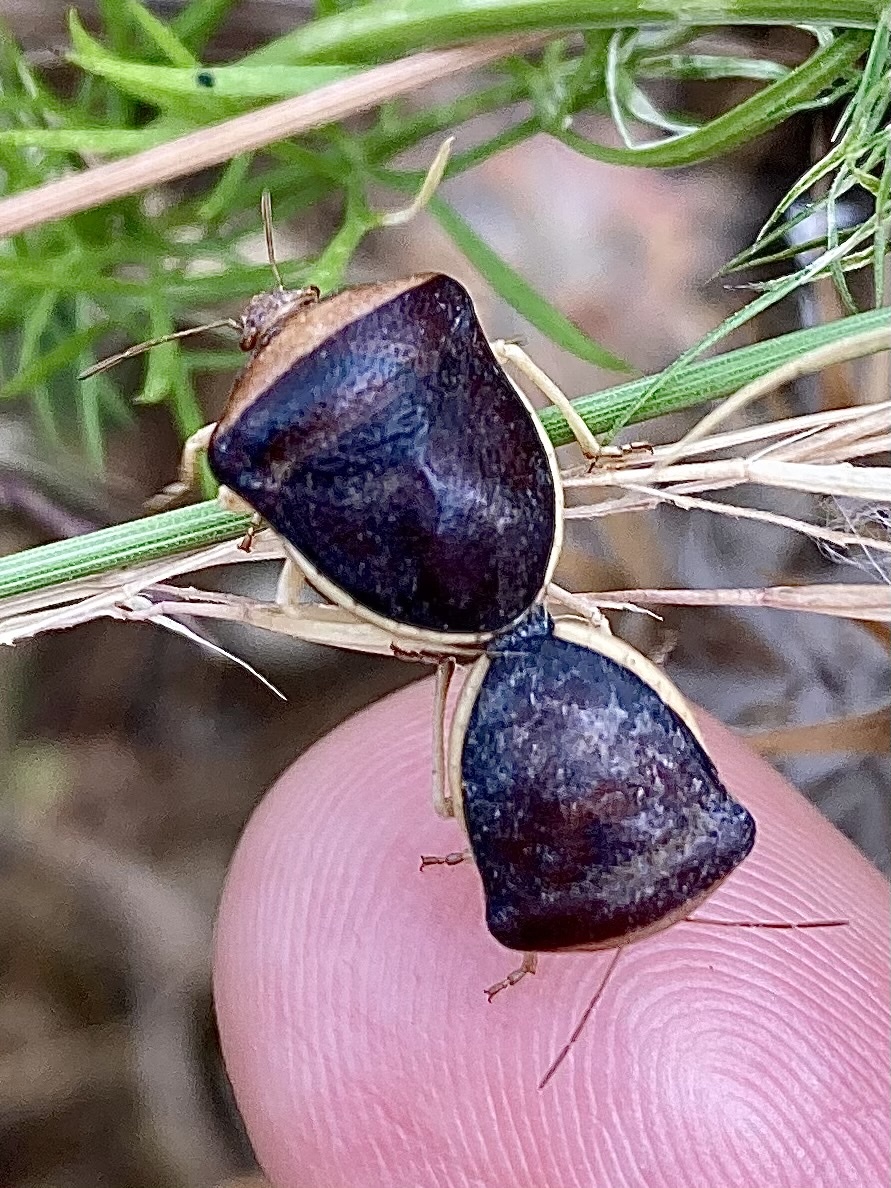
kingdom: Animalia
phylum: Arthropoda
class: Insecta
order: Hemiptera
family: Pentatomidae
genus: Ventocoris
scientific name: Ventocoris rusticus
